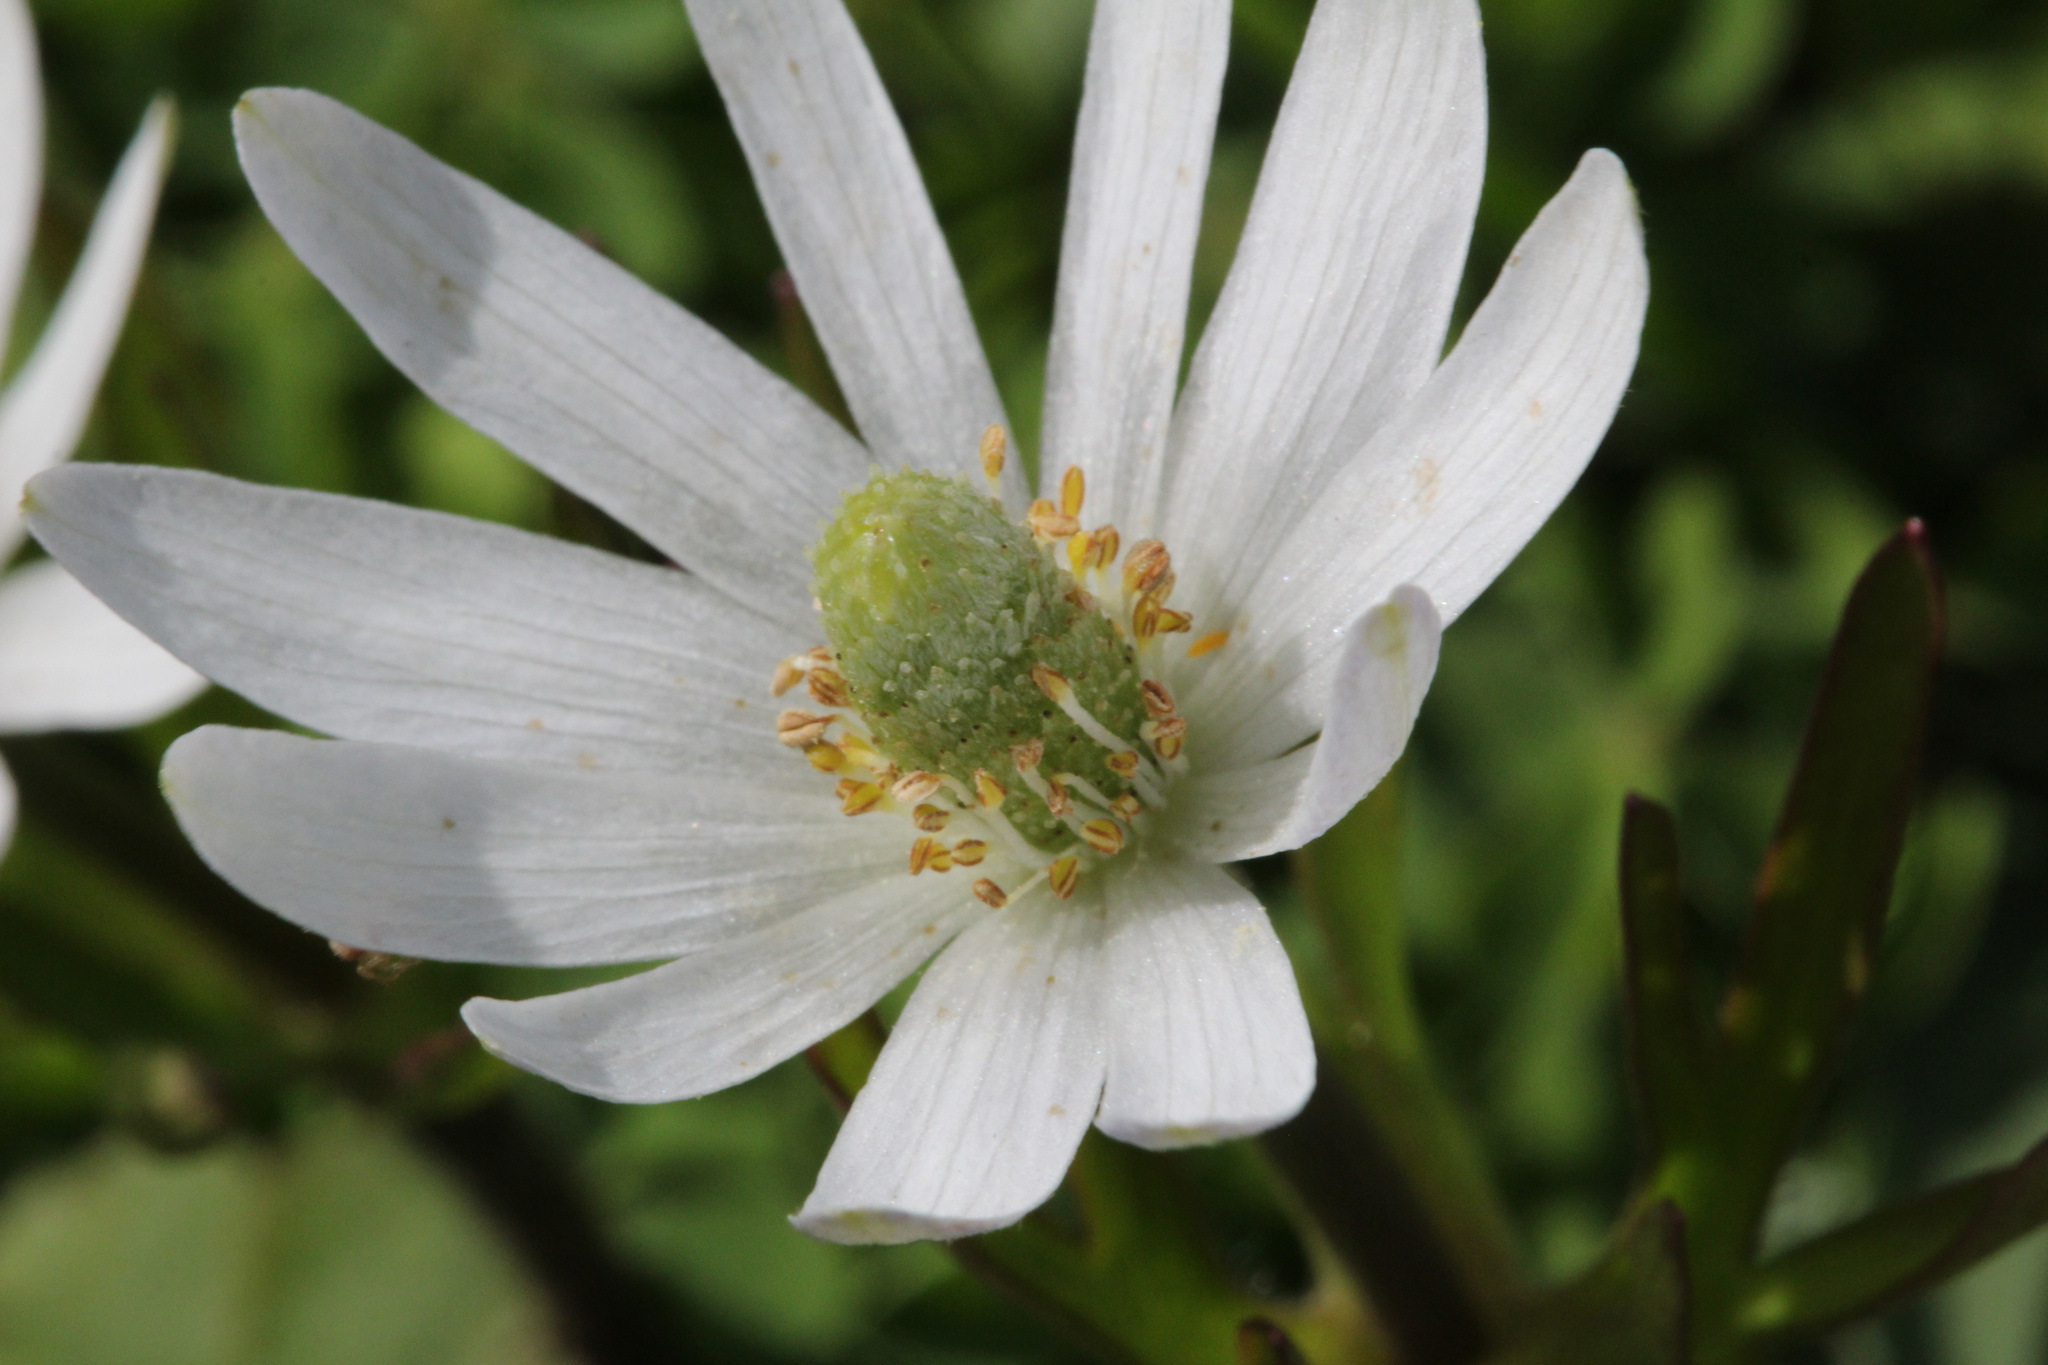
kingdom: Plantae
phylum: Tracheophyta
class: Magnoliopsida
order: Ranunculales
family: Ranunculaceae
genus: Anemone
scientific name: Anemone berlandieri
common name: Ten-petal anemone
